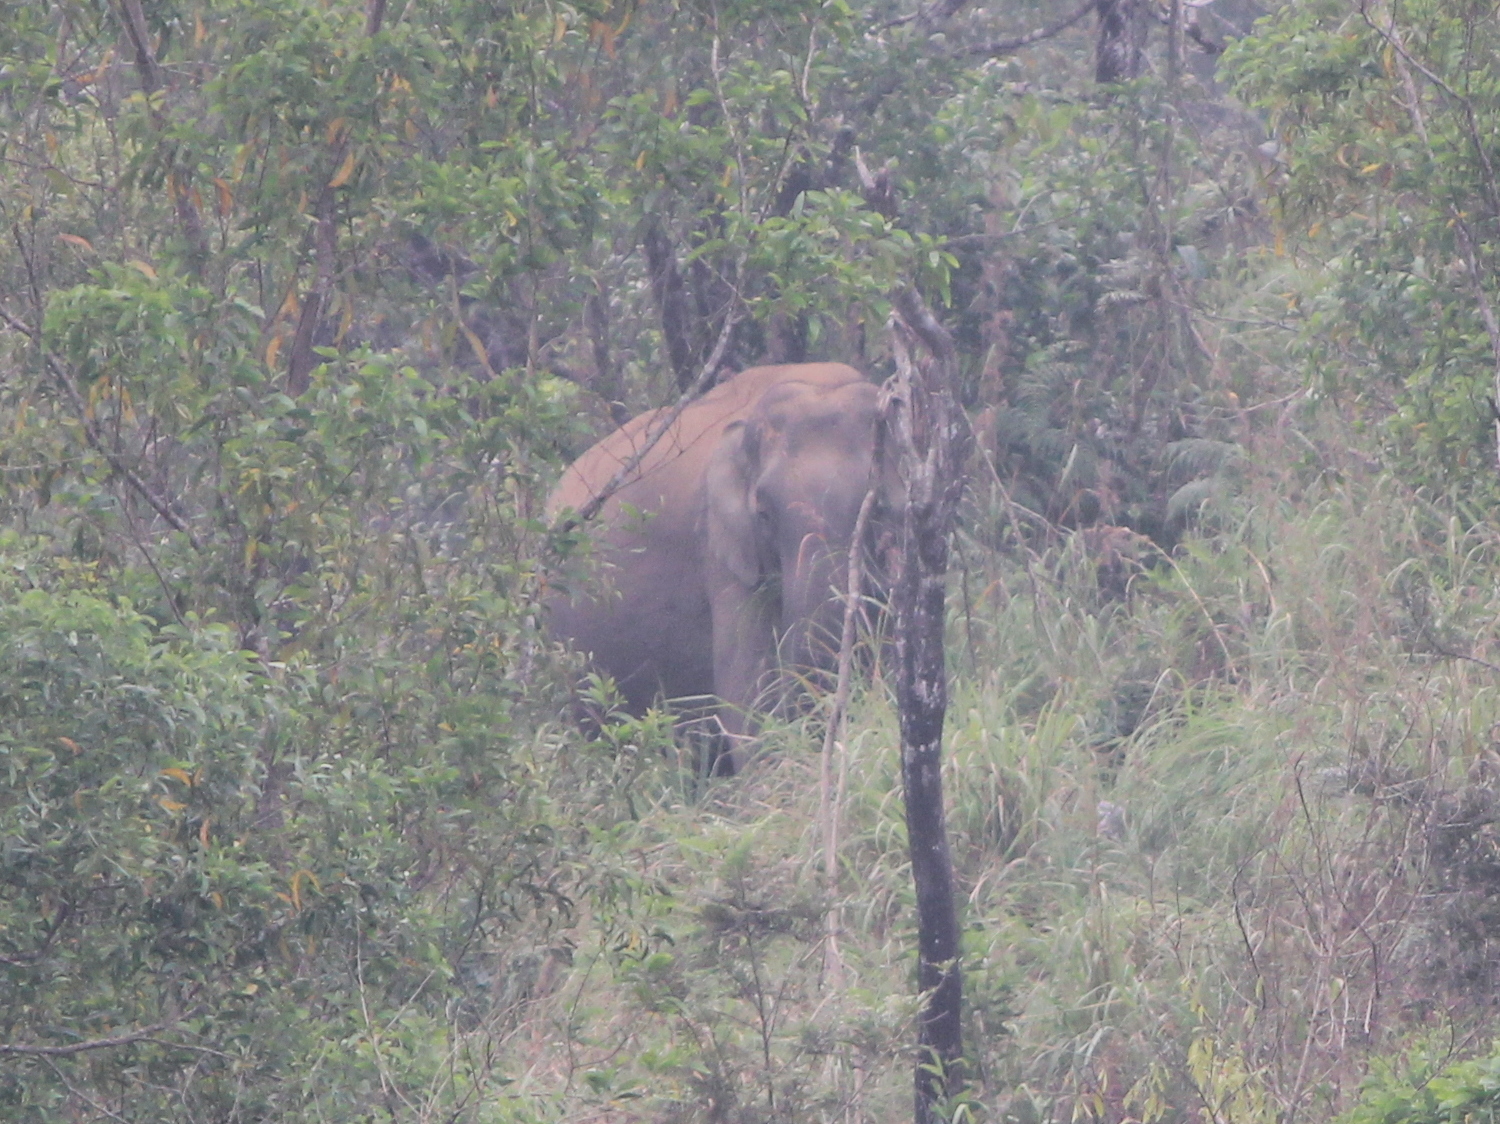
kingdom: Animalia
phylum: Chordata
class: Mammalia
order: Proboscidea
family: Elephantidae
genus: Elephas
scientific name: Elephas maximus
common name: Asian elephant
